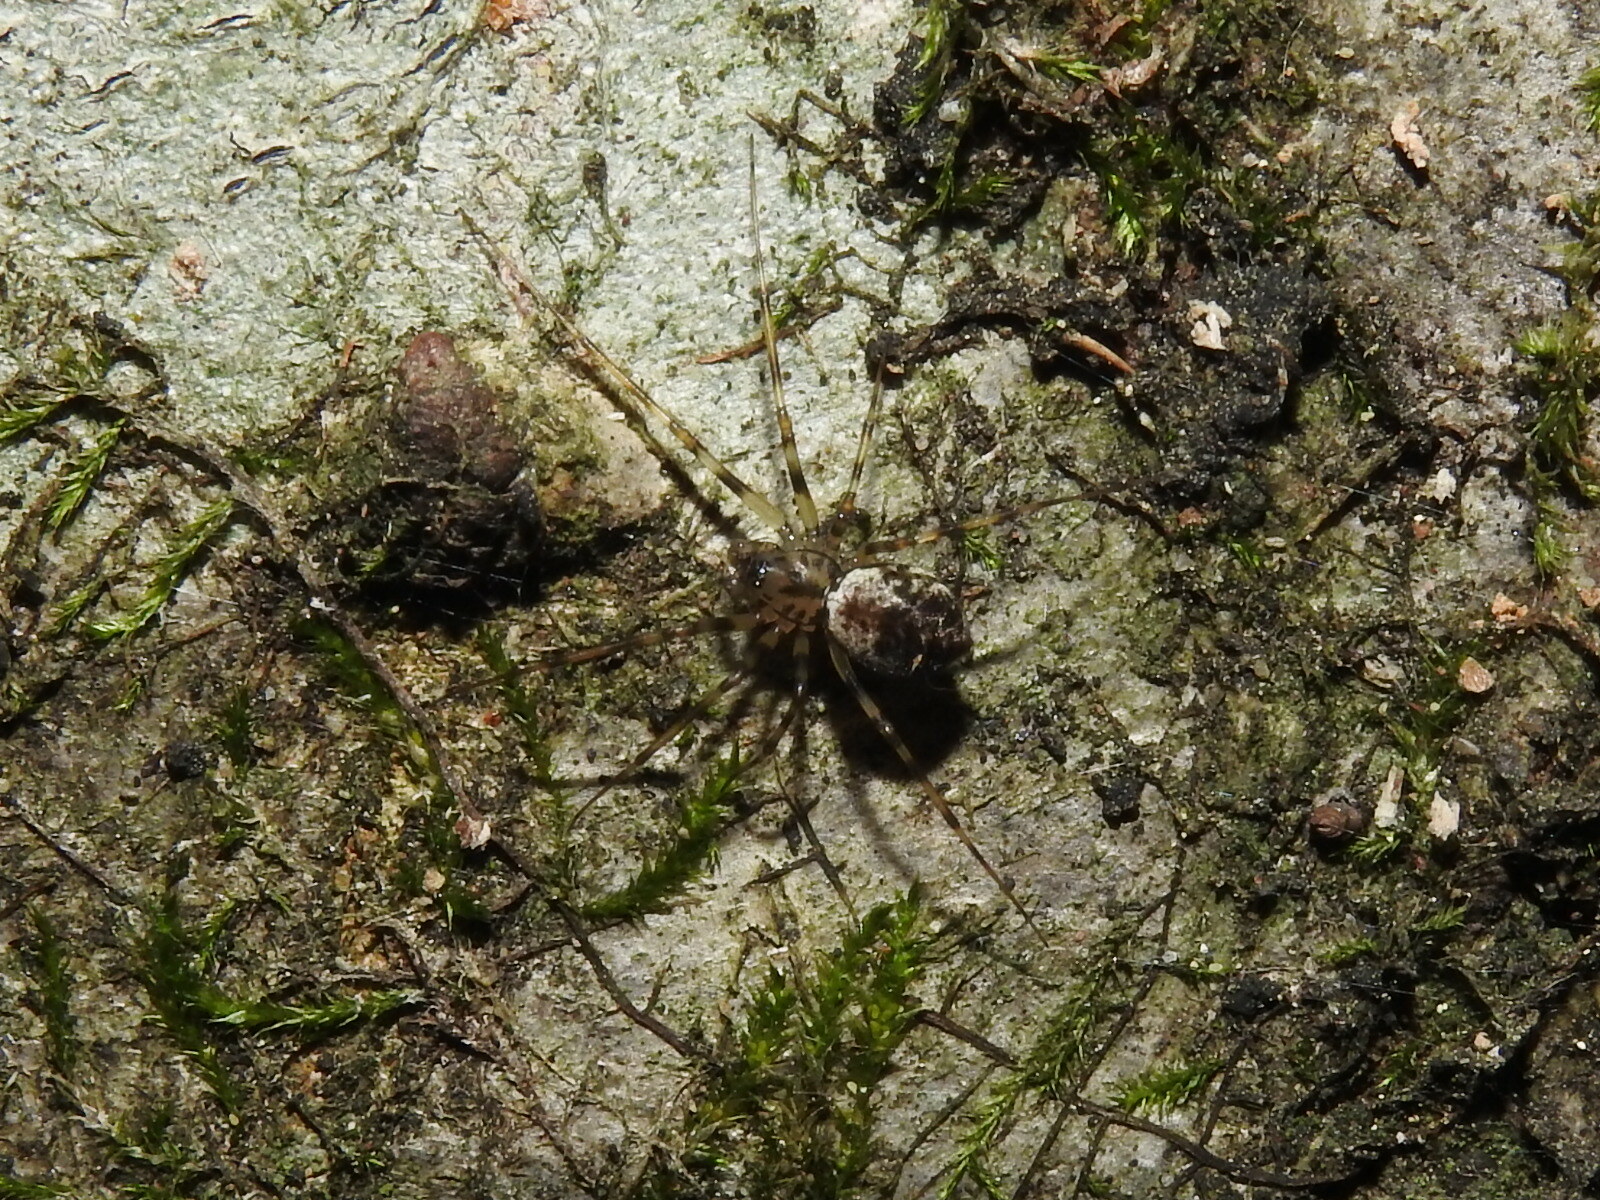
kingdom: Animalia
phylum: Arthropoda
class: Arachnida
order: Araneae
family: Linyphiidae
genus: Drapetisca
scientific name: Drapetisca socialis
